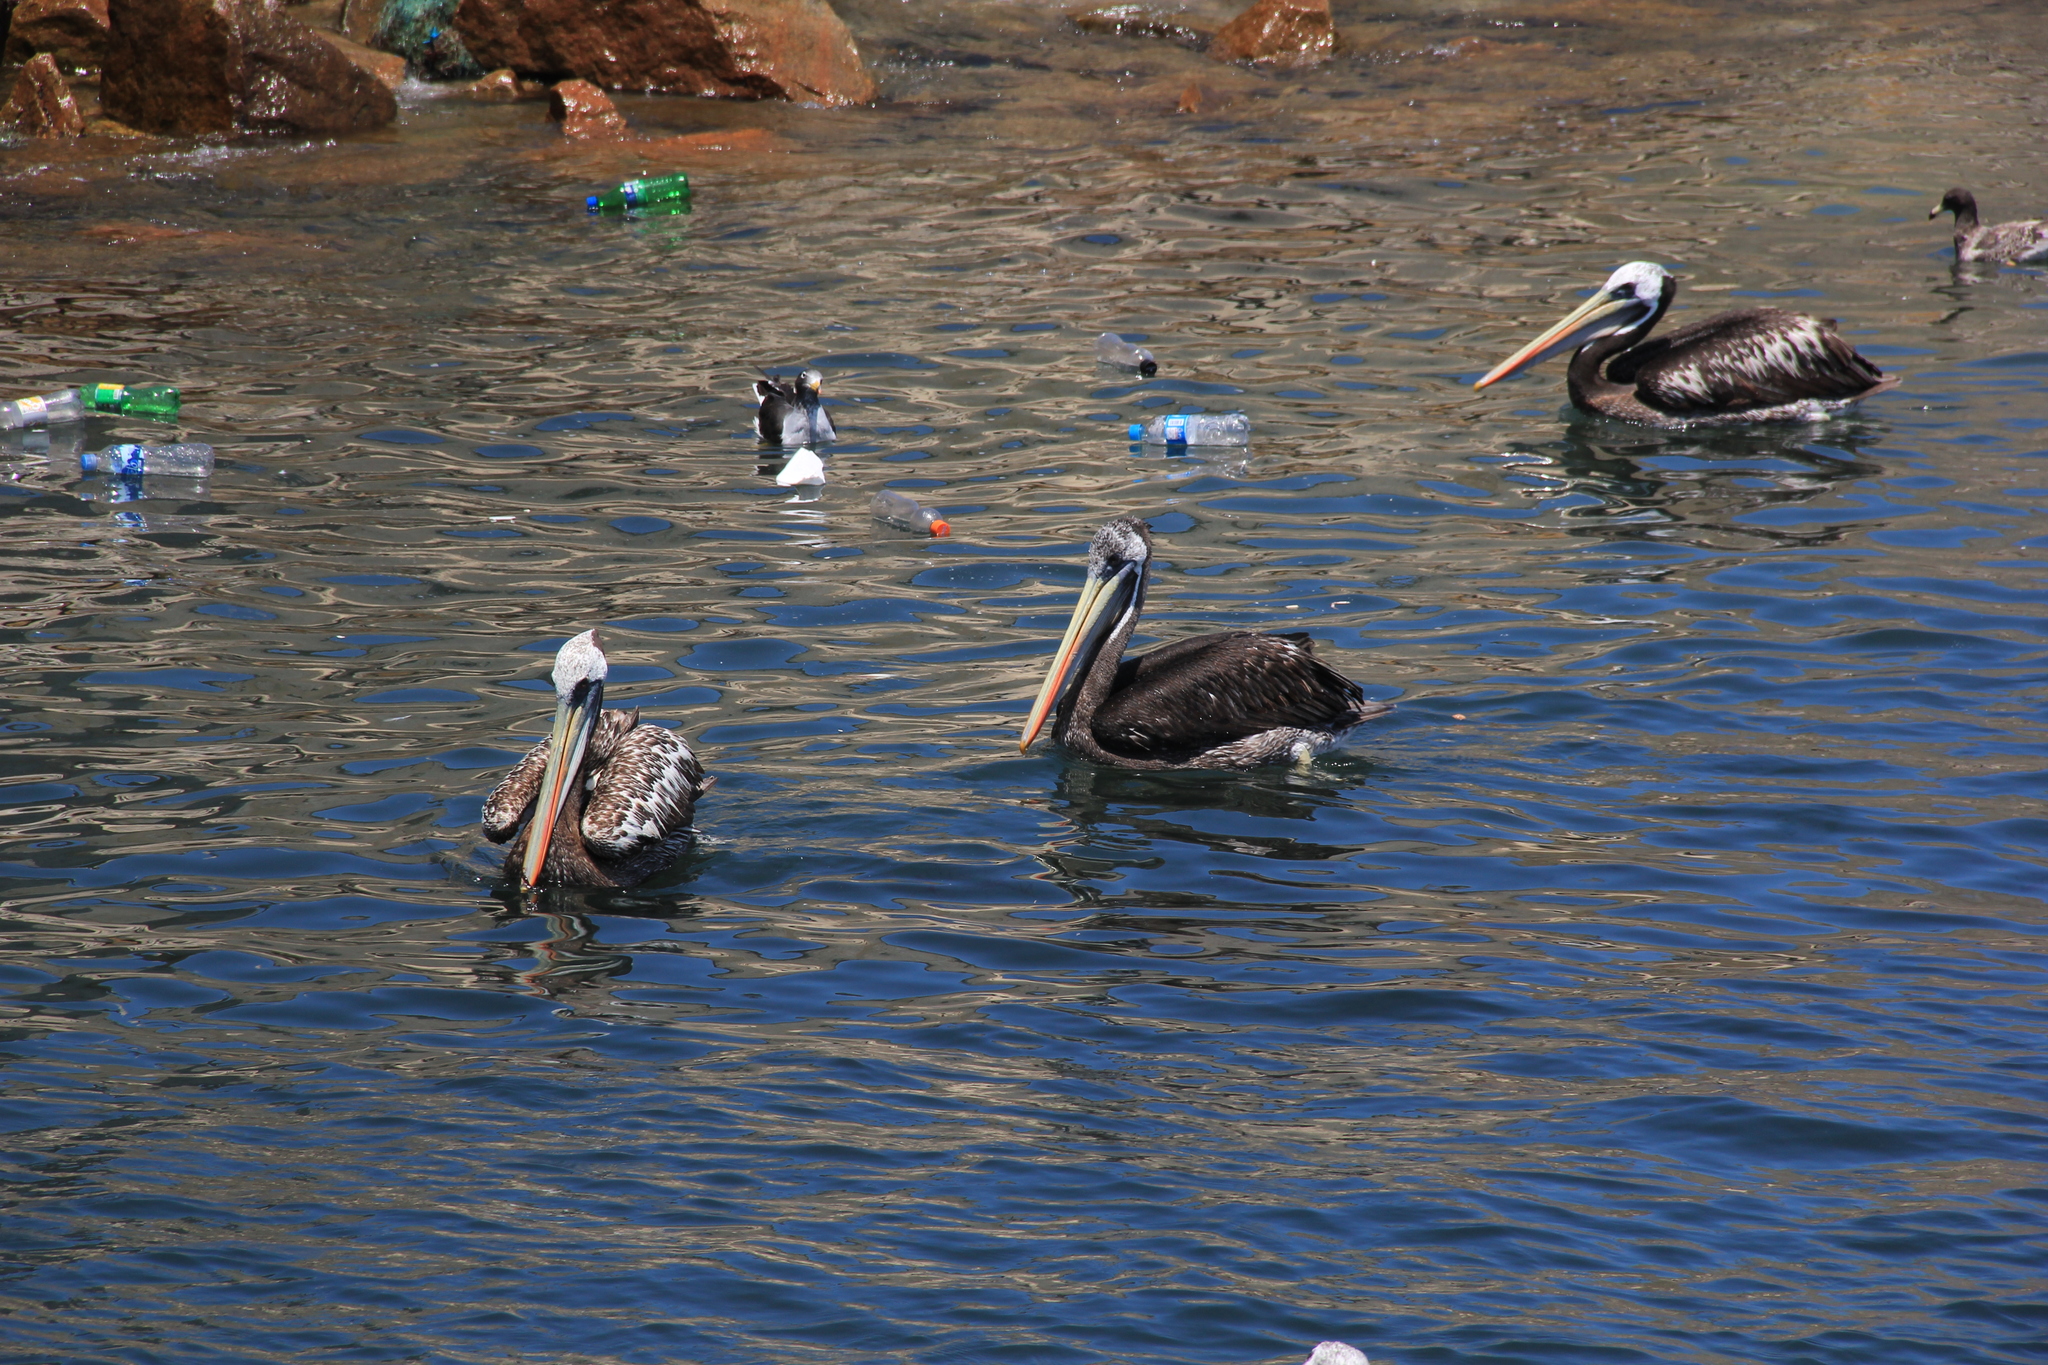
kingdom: Animalia
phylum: Chordata
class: Aves
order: Pelecaniformes
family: Pelecanidae
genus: Pelecanus
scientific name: Pelecanus thagus
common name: Peruvian pelican
